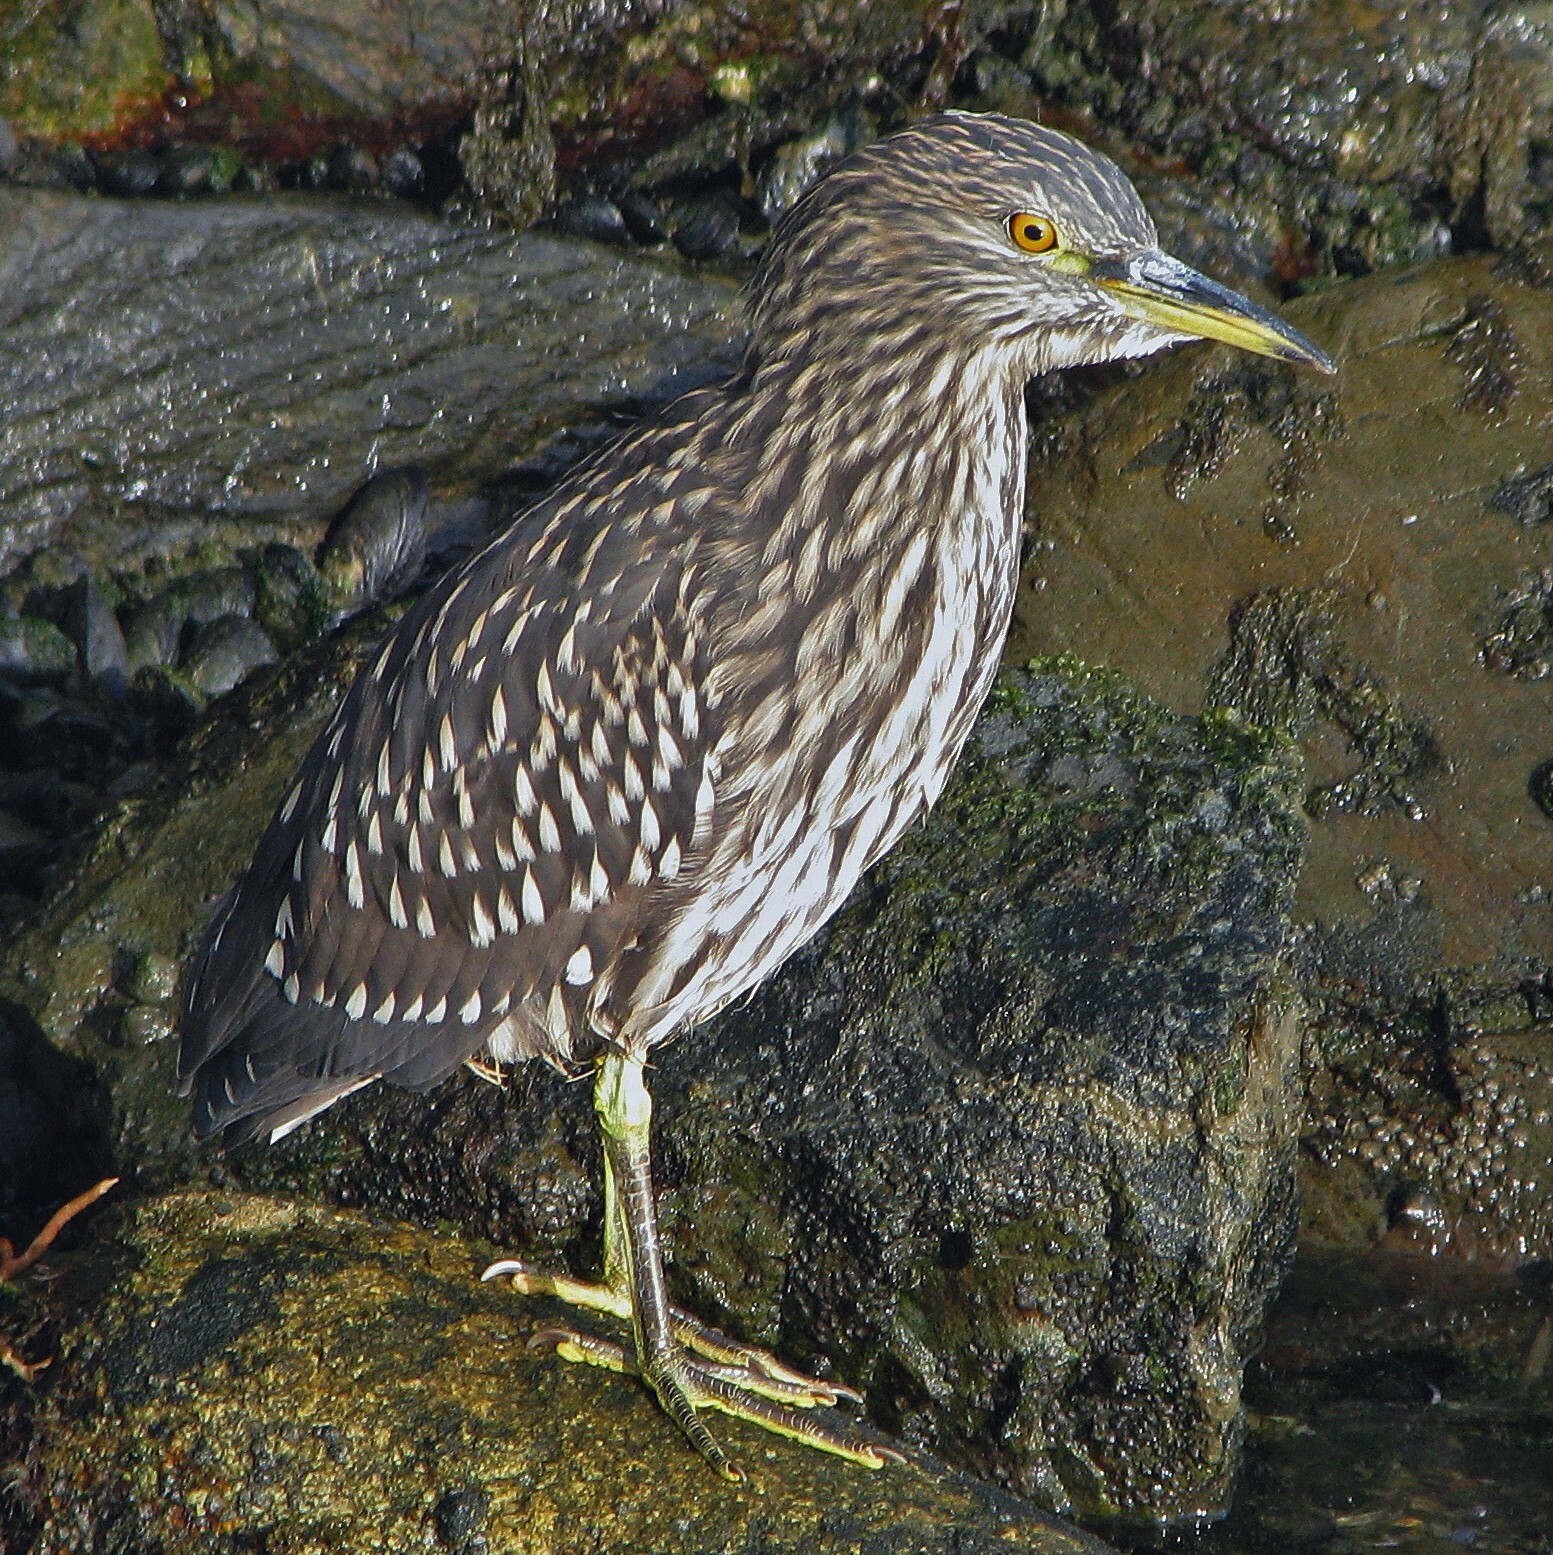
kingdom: Animalia
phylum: Chordata
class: Aves
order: Pelecaniformes
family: Ardeidae
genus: Nycticorax
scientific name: Nycticorax nycticorax
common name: Black-crowned night heron
